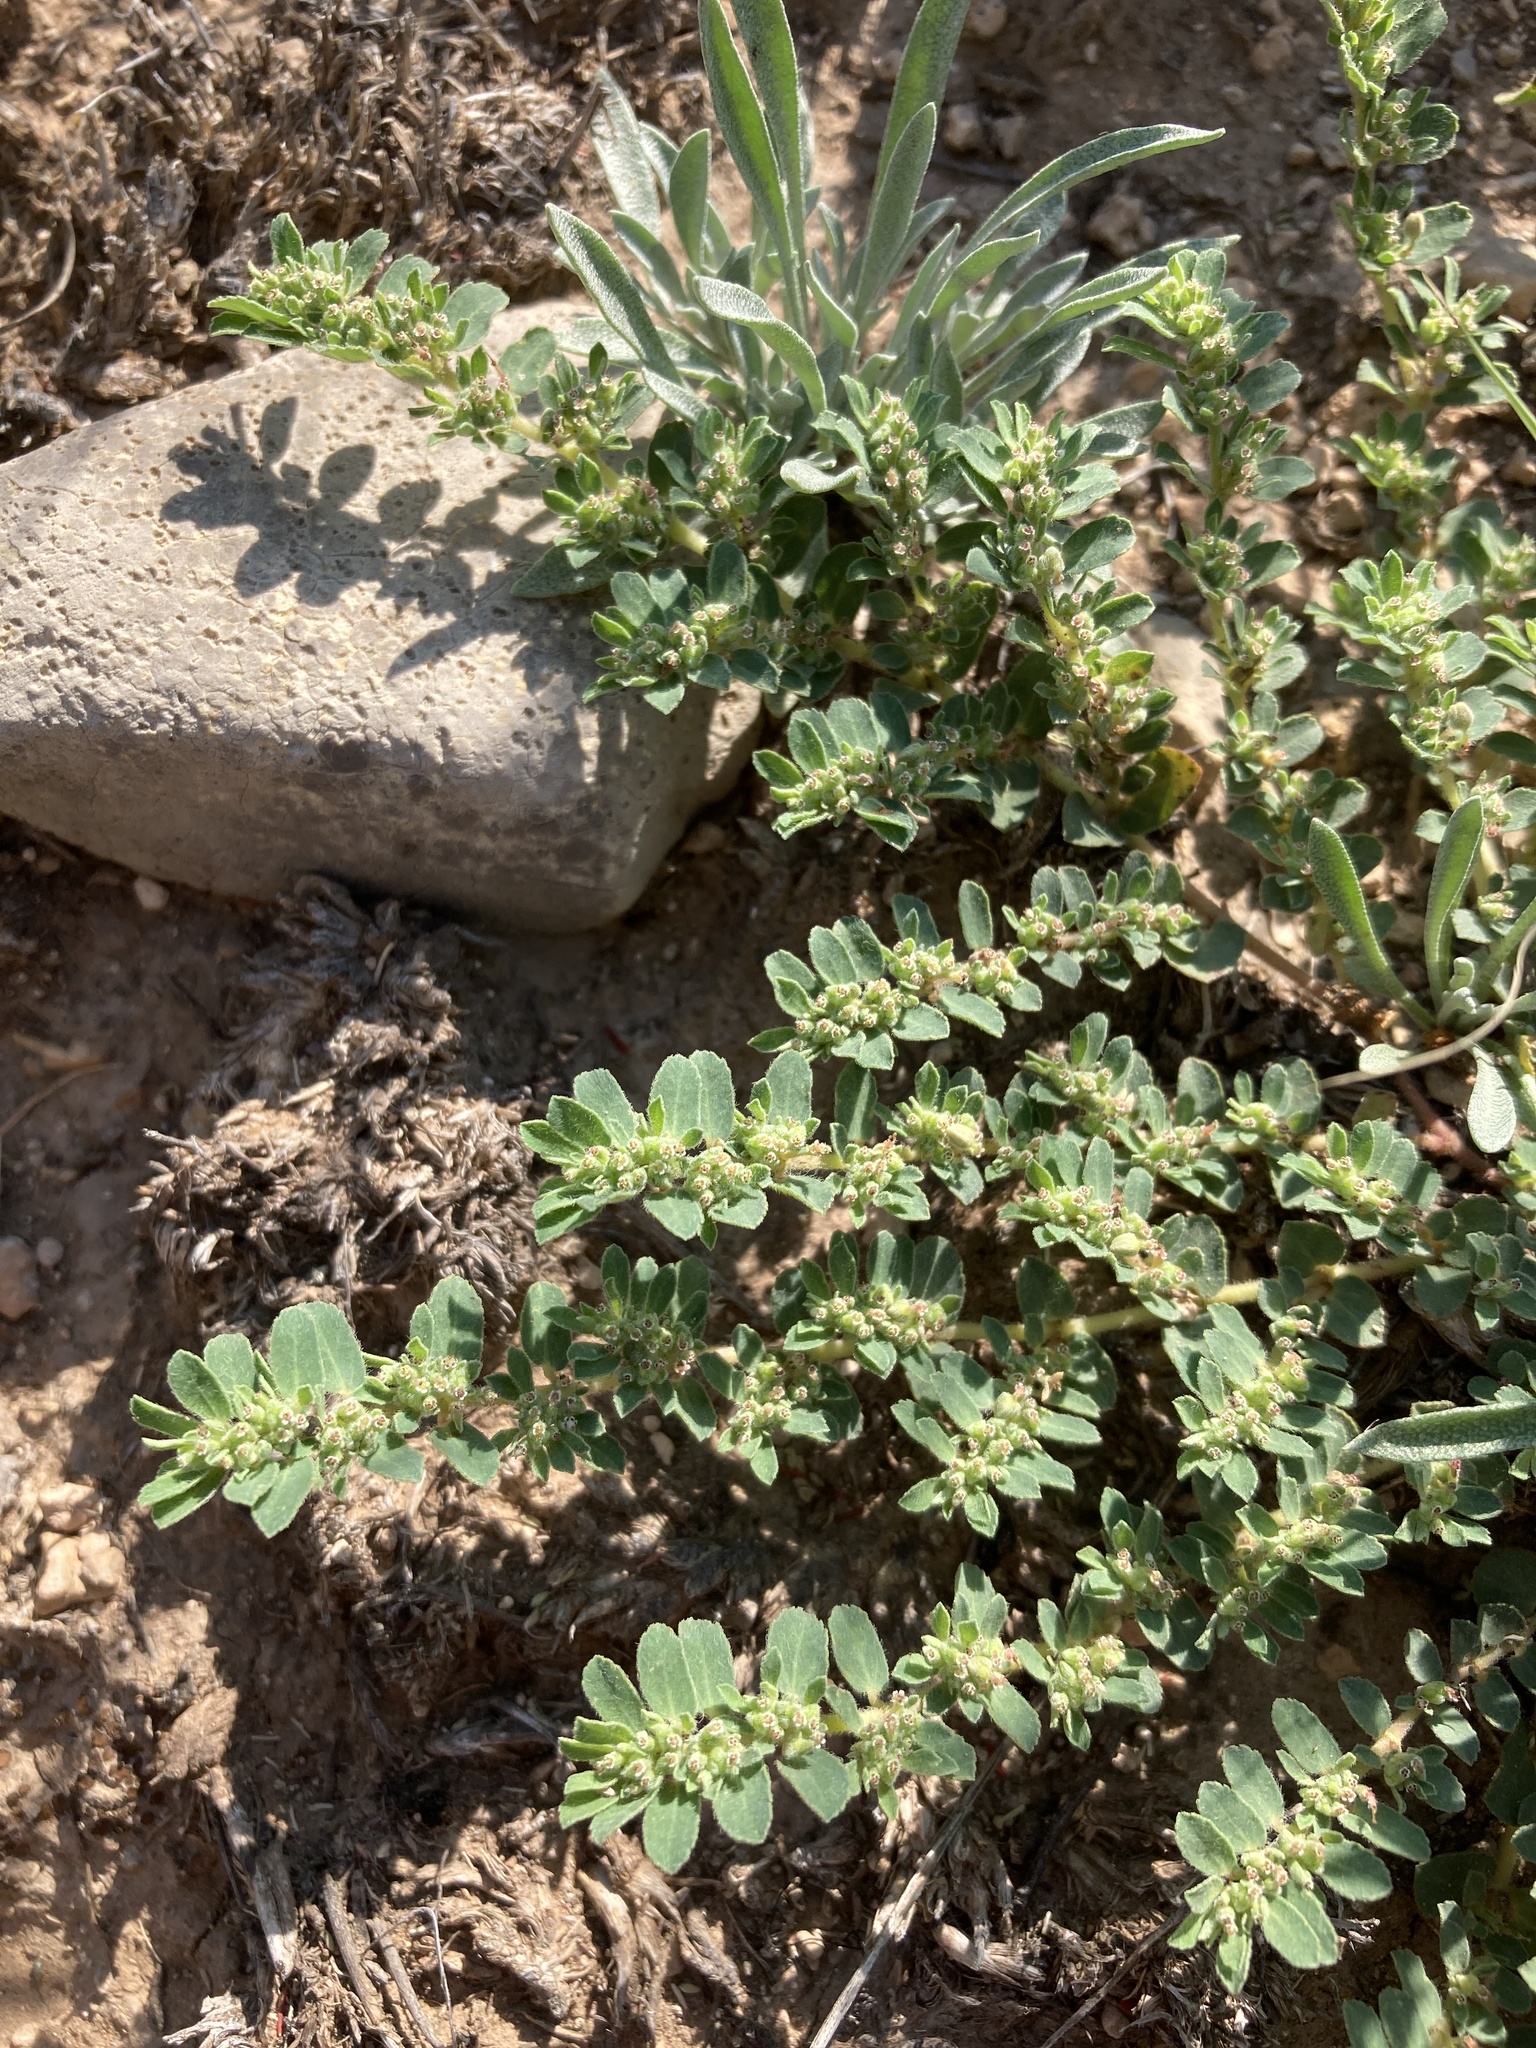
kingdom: Plantae
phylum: Tracheophyta
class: Magnoliopsida
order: Malpighiales
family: Euphorbiaceae
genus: Euphorbia
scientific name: Euphorbia stictospora
